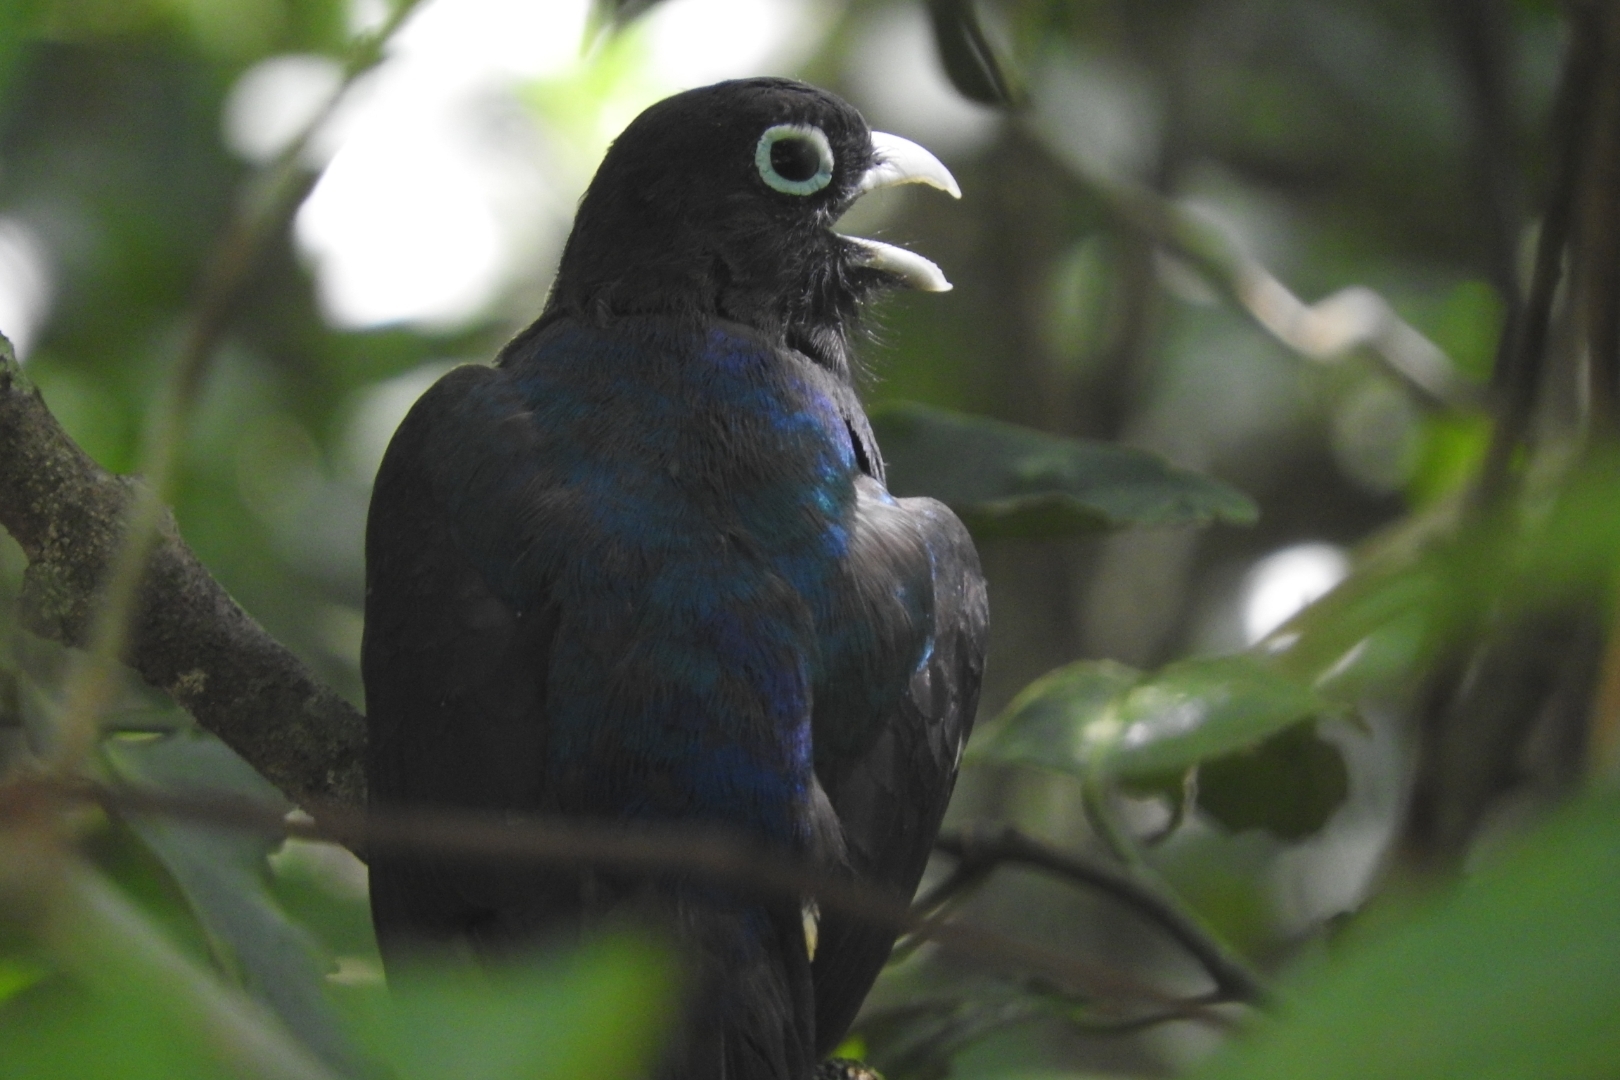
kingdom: Animalia
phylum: Chordata
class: Aves
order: Trogoniformes
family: Trogonidae
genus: Trogon
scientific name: Trogon melanocephalus
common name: Black-headed trogon
